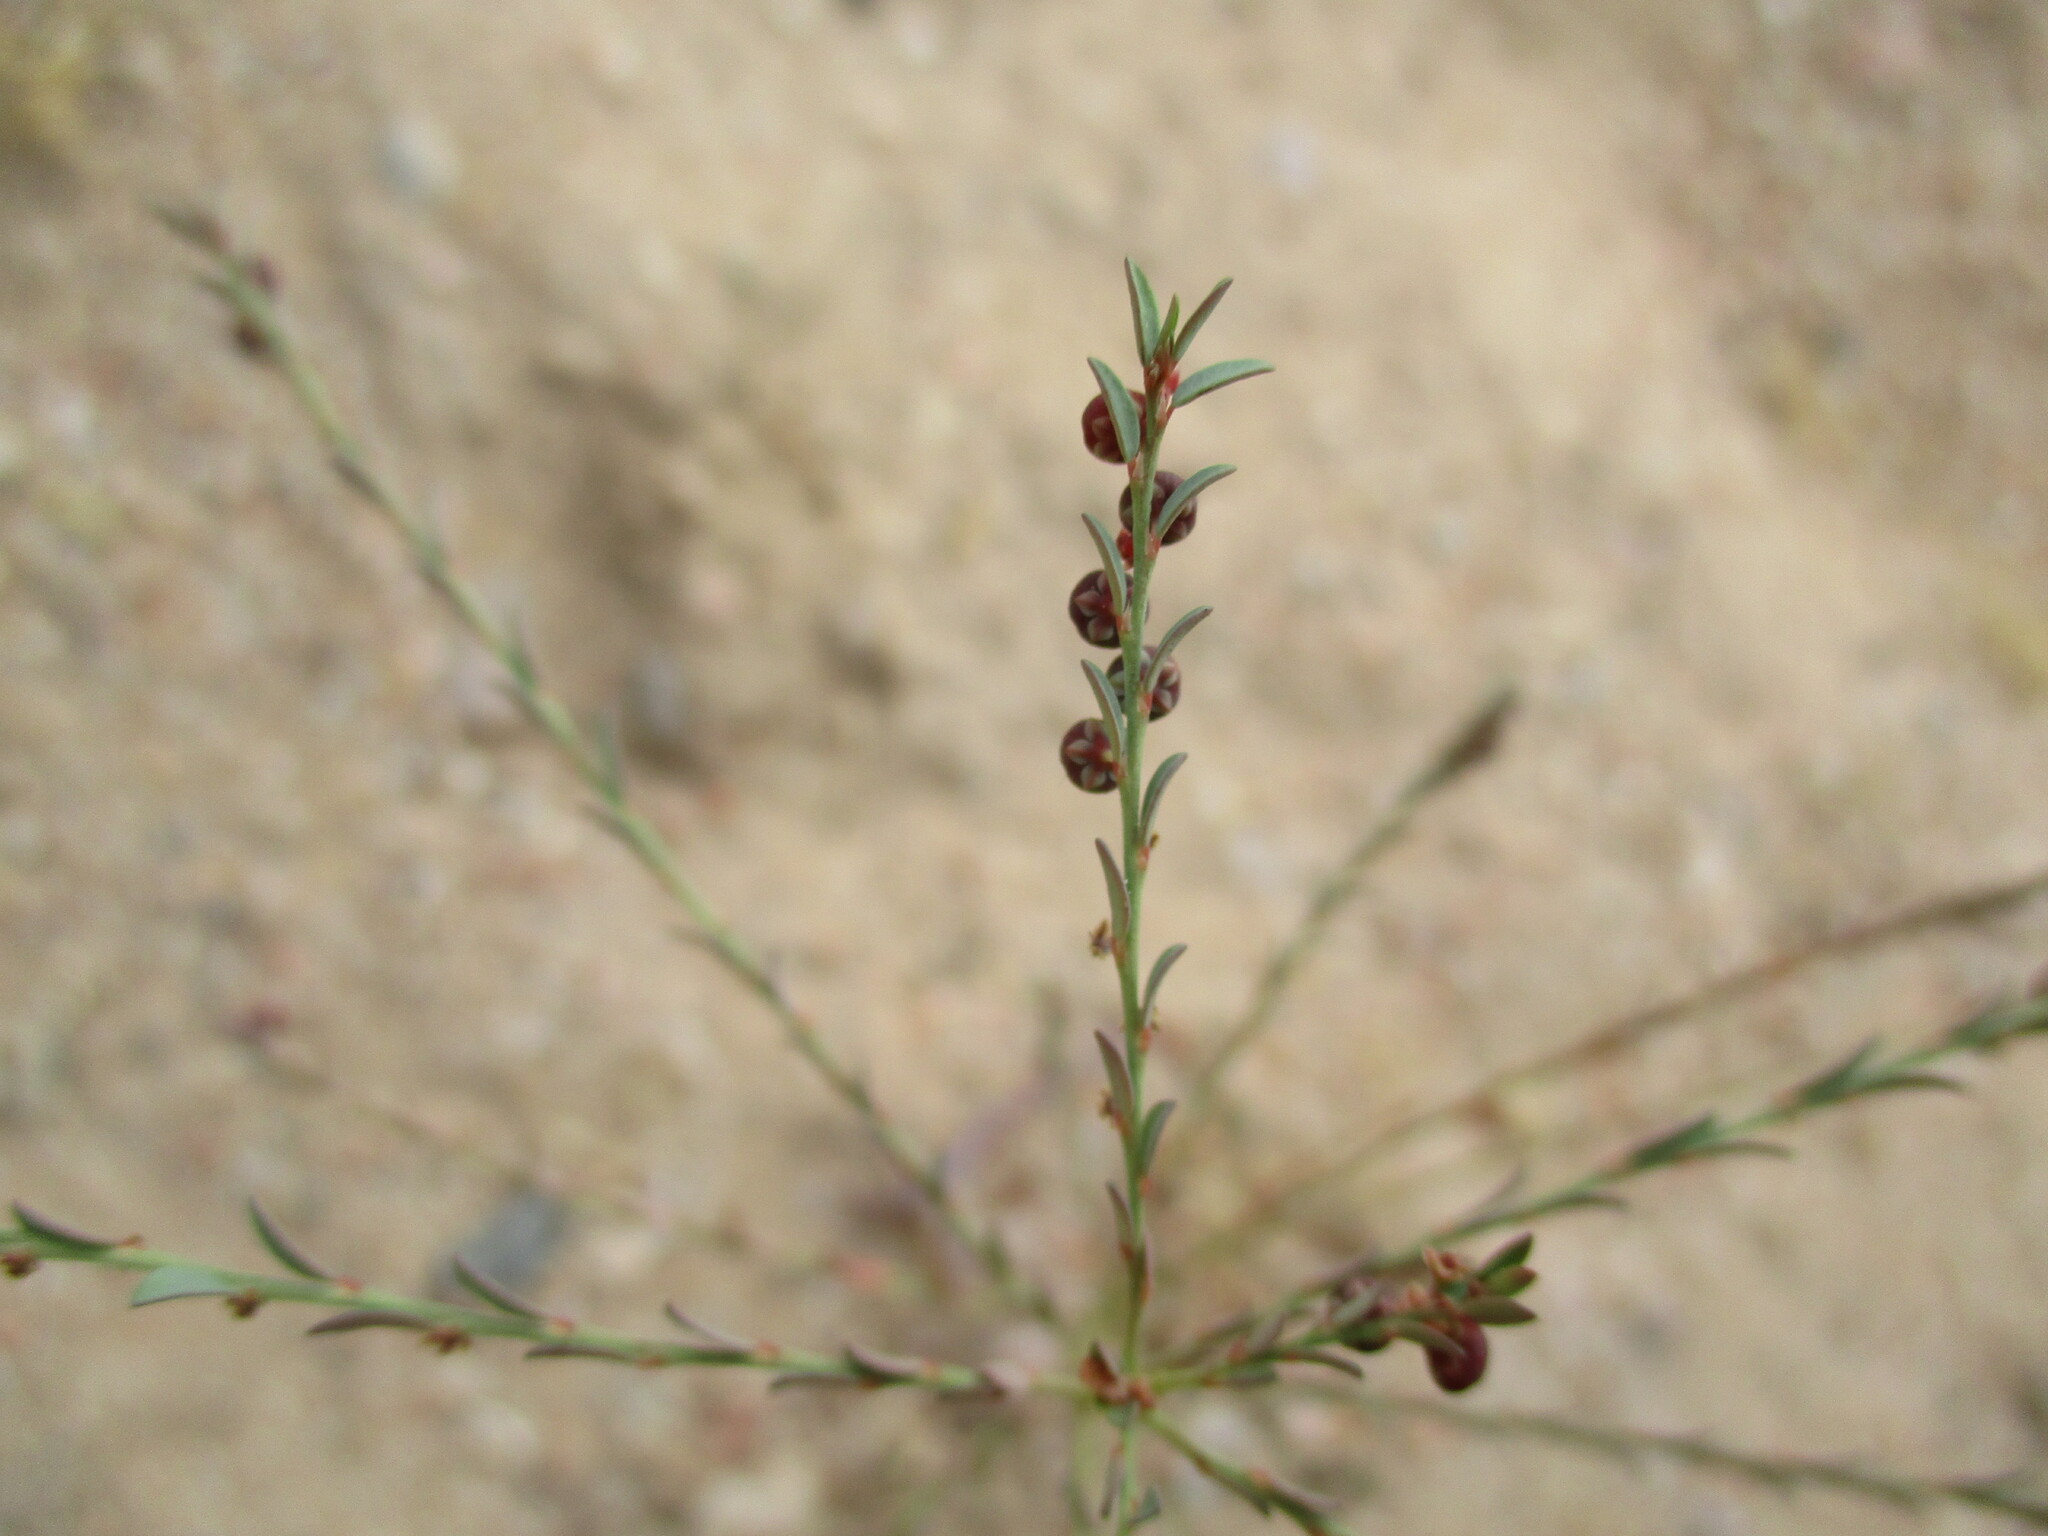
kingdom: Plantae
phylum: Tracheophyta
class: Magnoliopsida
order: Malpighiales
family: Phyllanthaceae
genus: Phyllanthus
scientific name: Phyllanthus pentandrus
